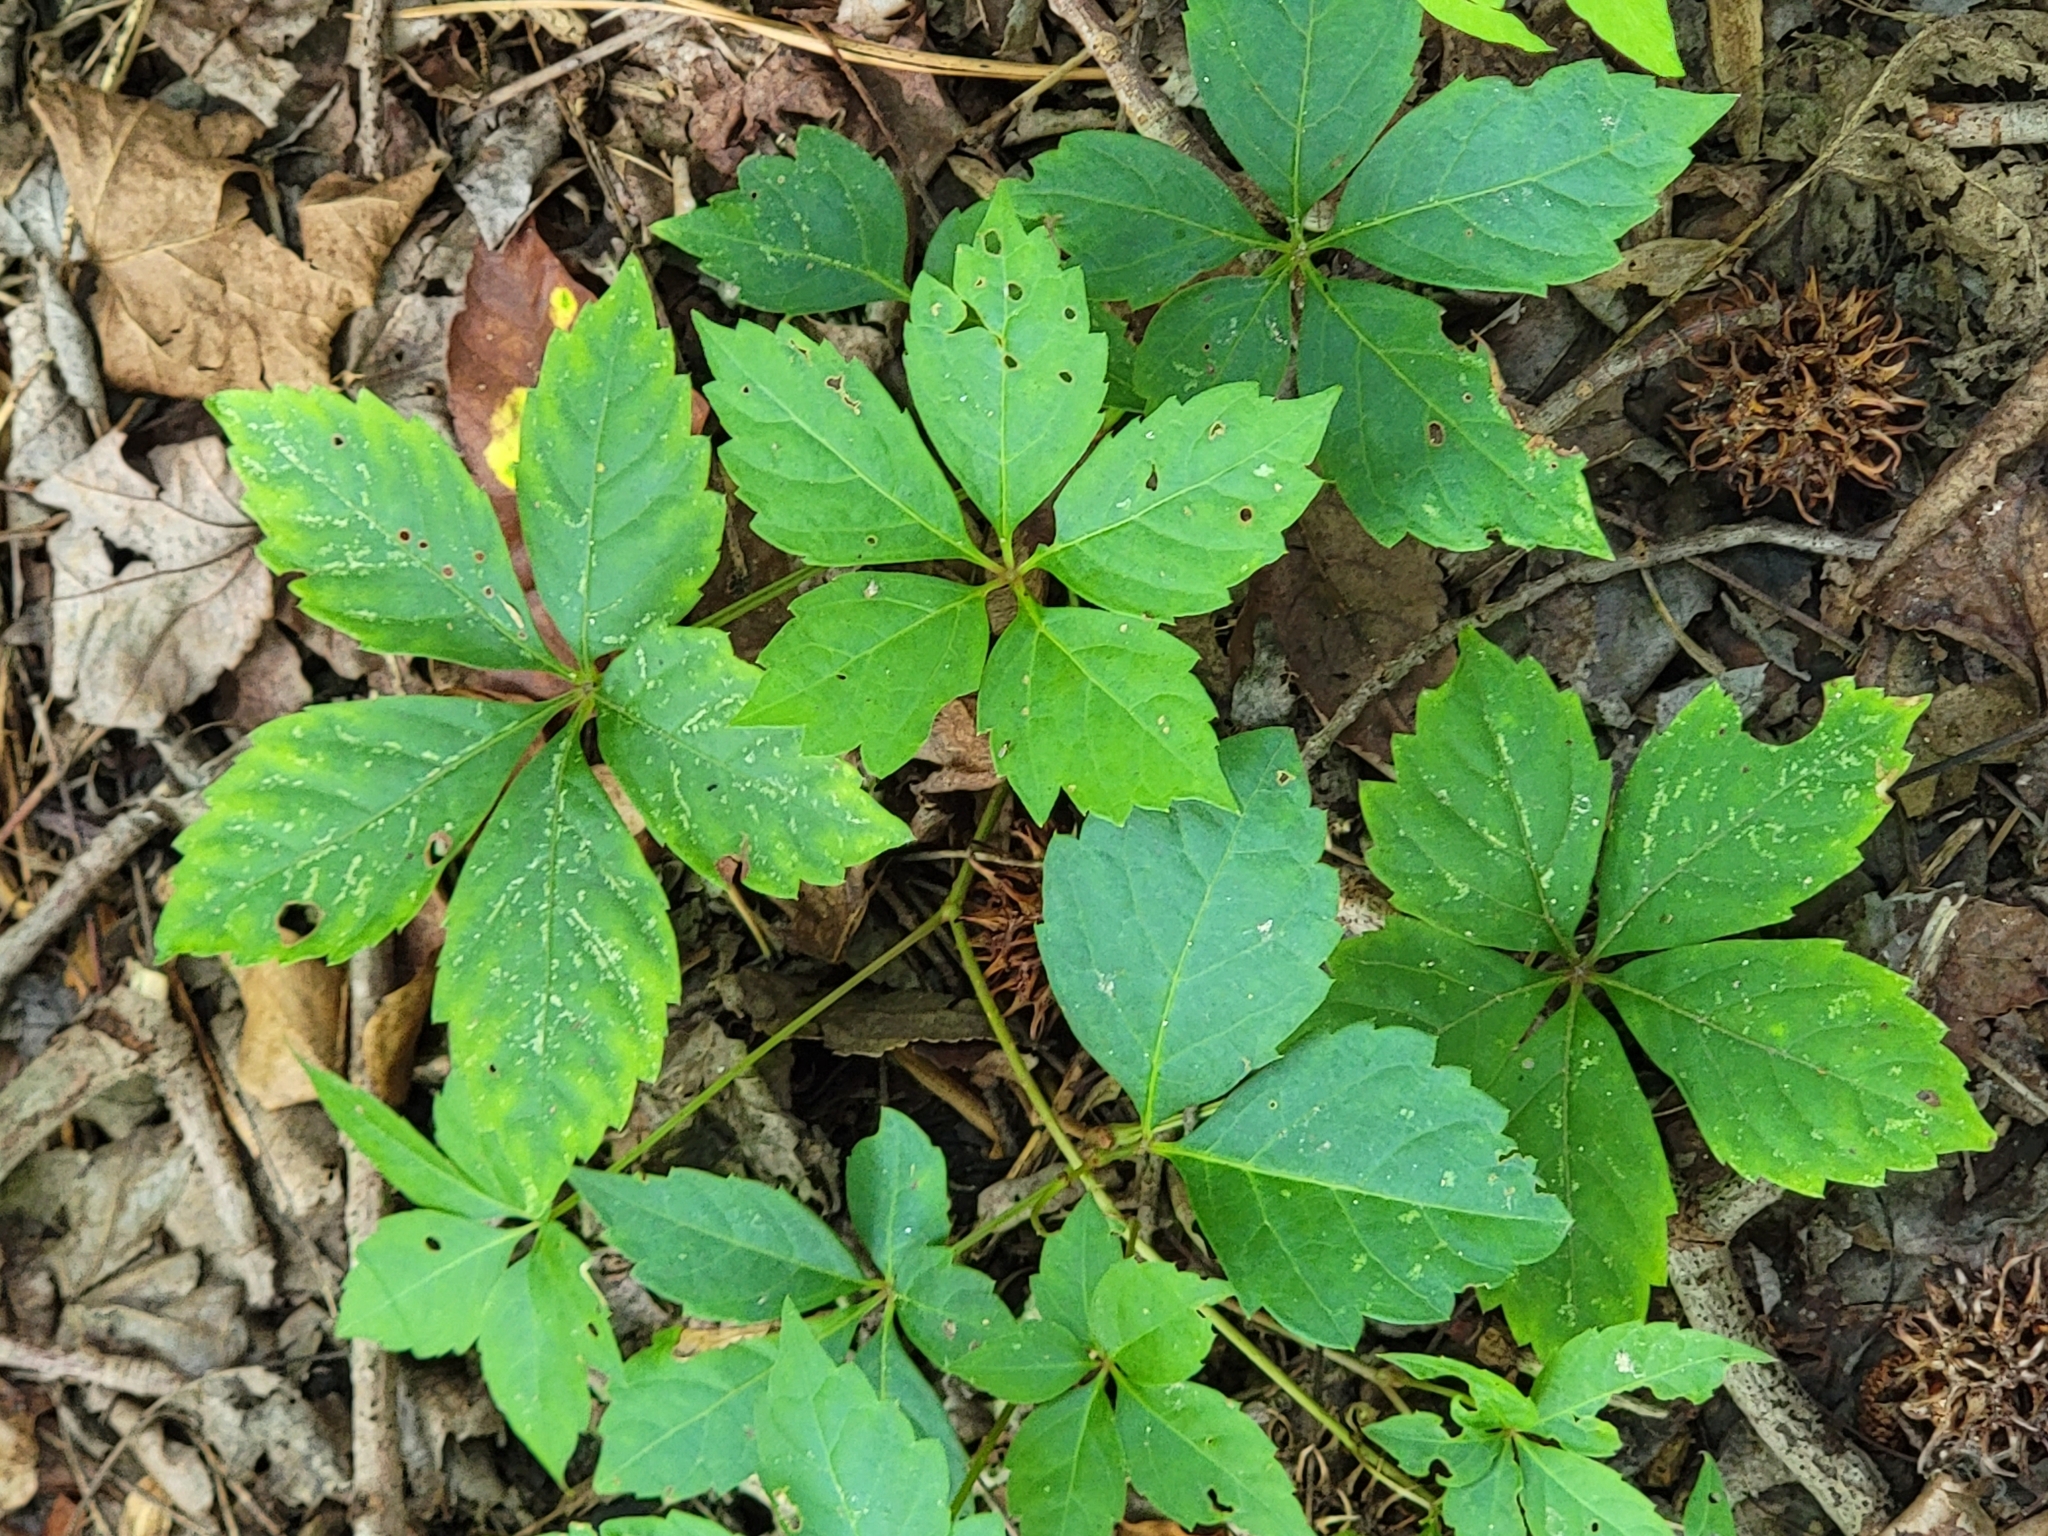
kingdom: Plantae
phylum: Tracheophyta
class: Magnoliopsida
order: Vitales
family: Vitaceae
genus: Parthenocissus
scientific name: Parthenocissus quinquefolia
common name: Virginia-creeper
